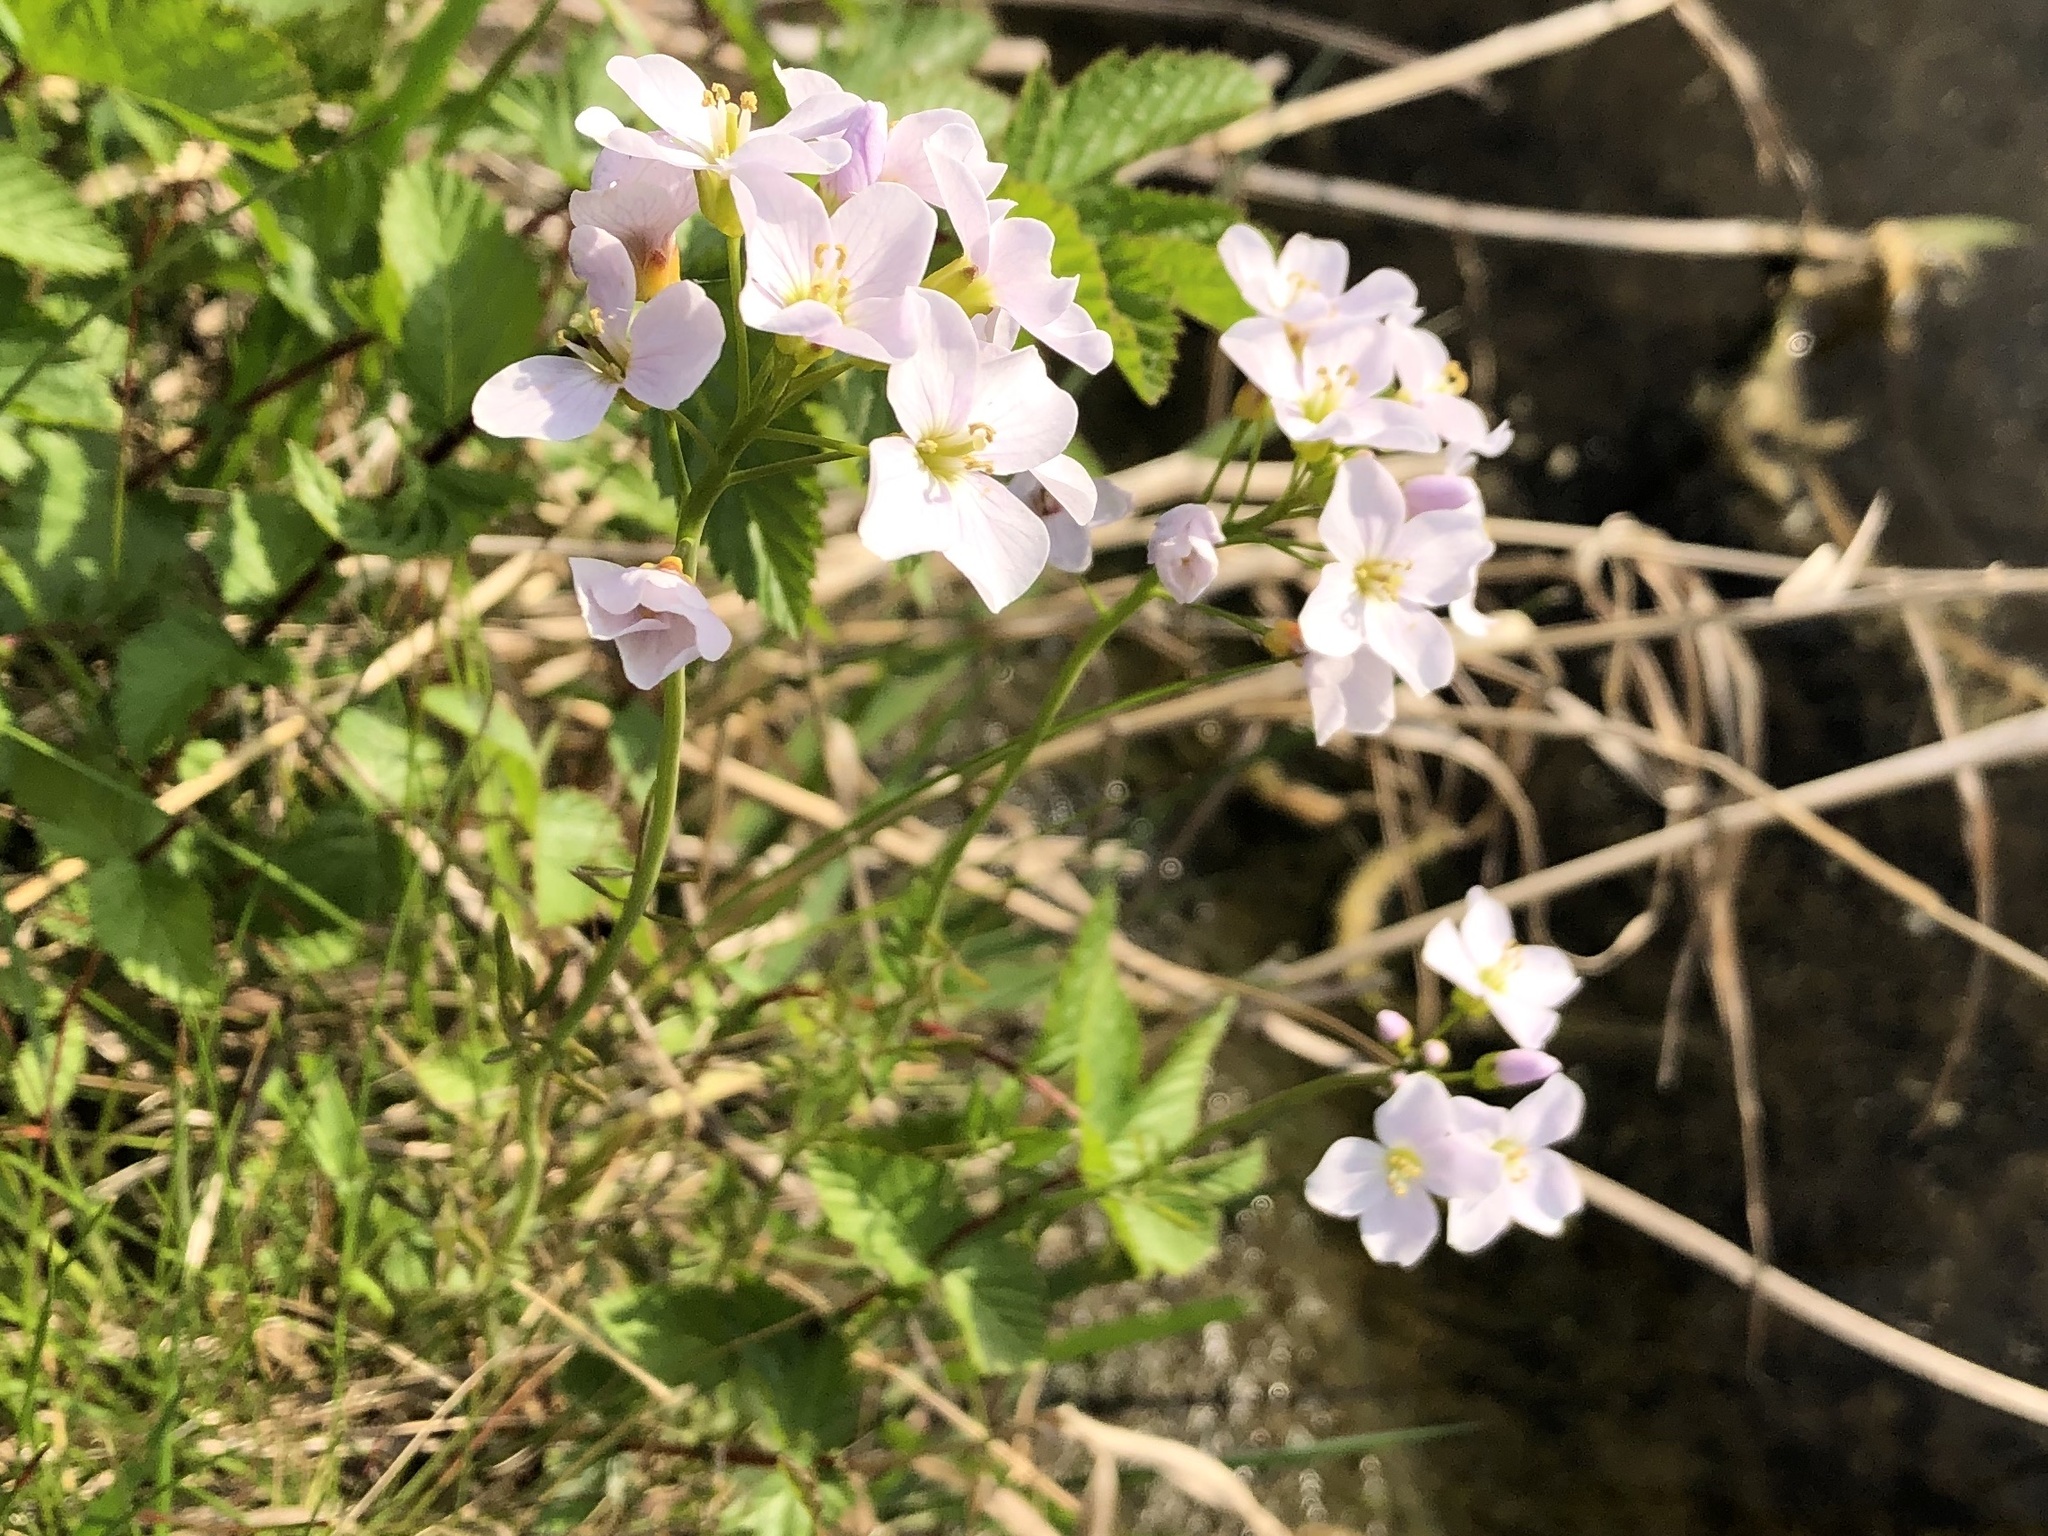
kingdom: Plantae
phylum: Tracheophyta
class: Magnoliopsida
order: Brassicales
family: Brassicaceae
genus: Cardamine
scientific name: Cardamine pratensis
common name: Cuckoo flower
